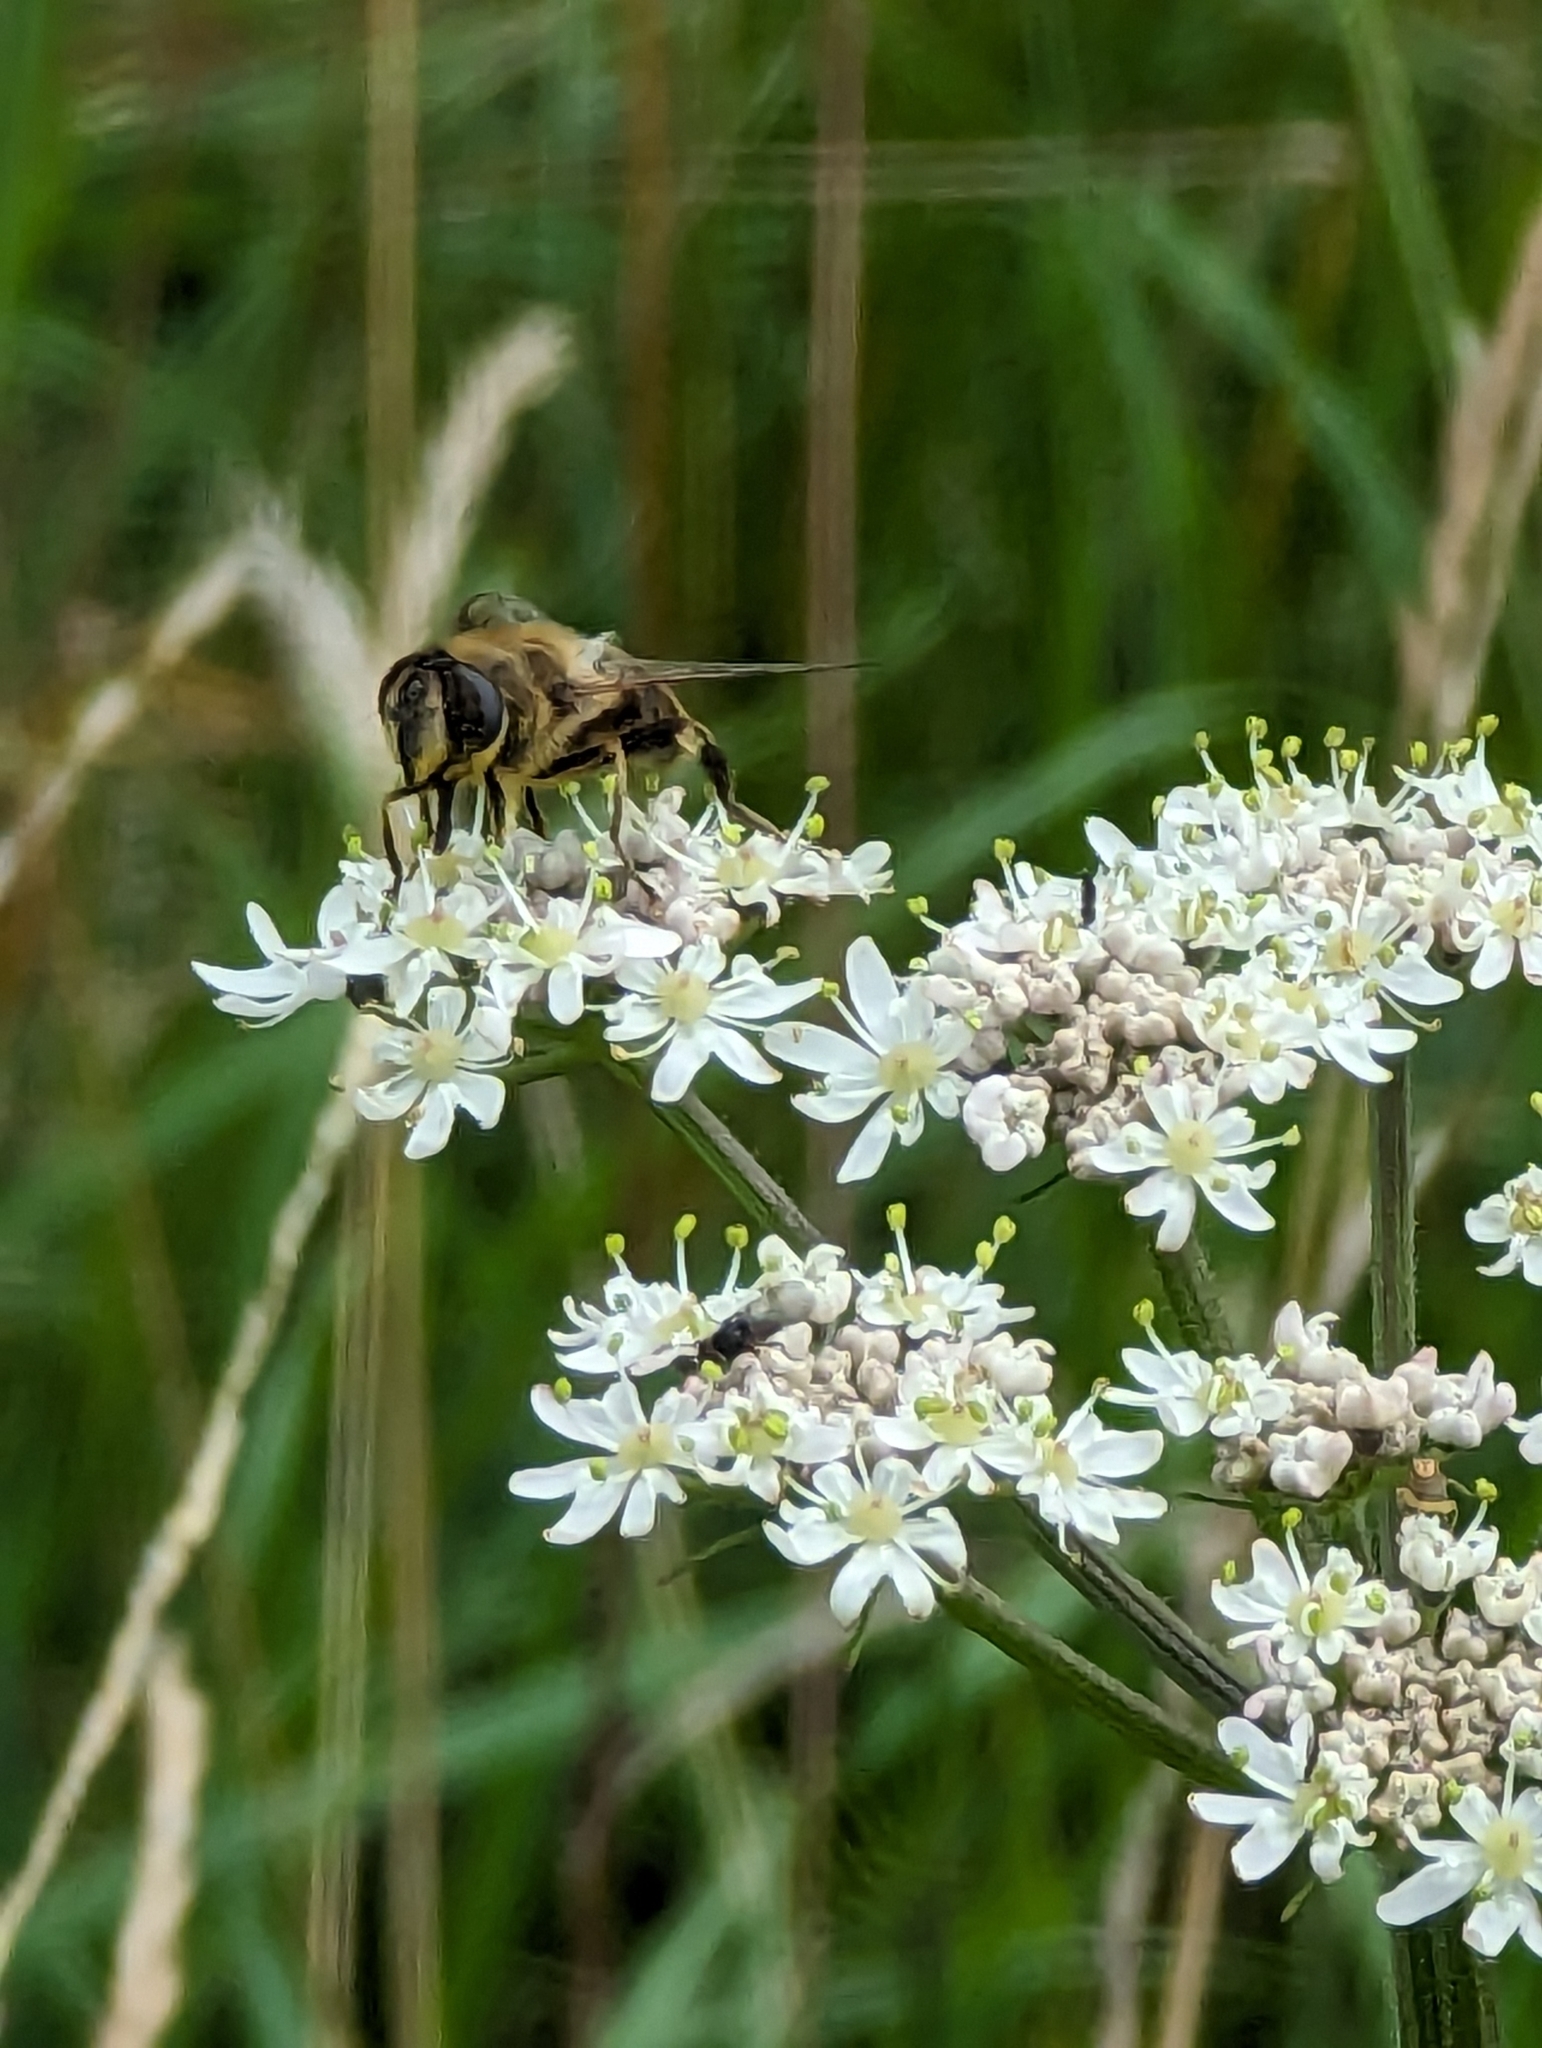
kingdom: Animalia
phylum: Arthropoda
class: Insecta
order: Diptera
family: Syrphidae
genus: Eristalis
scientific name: Eristalis tenax
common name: Drone fly
